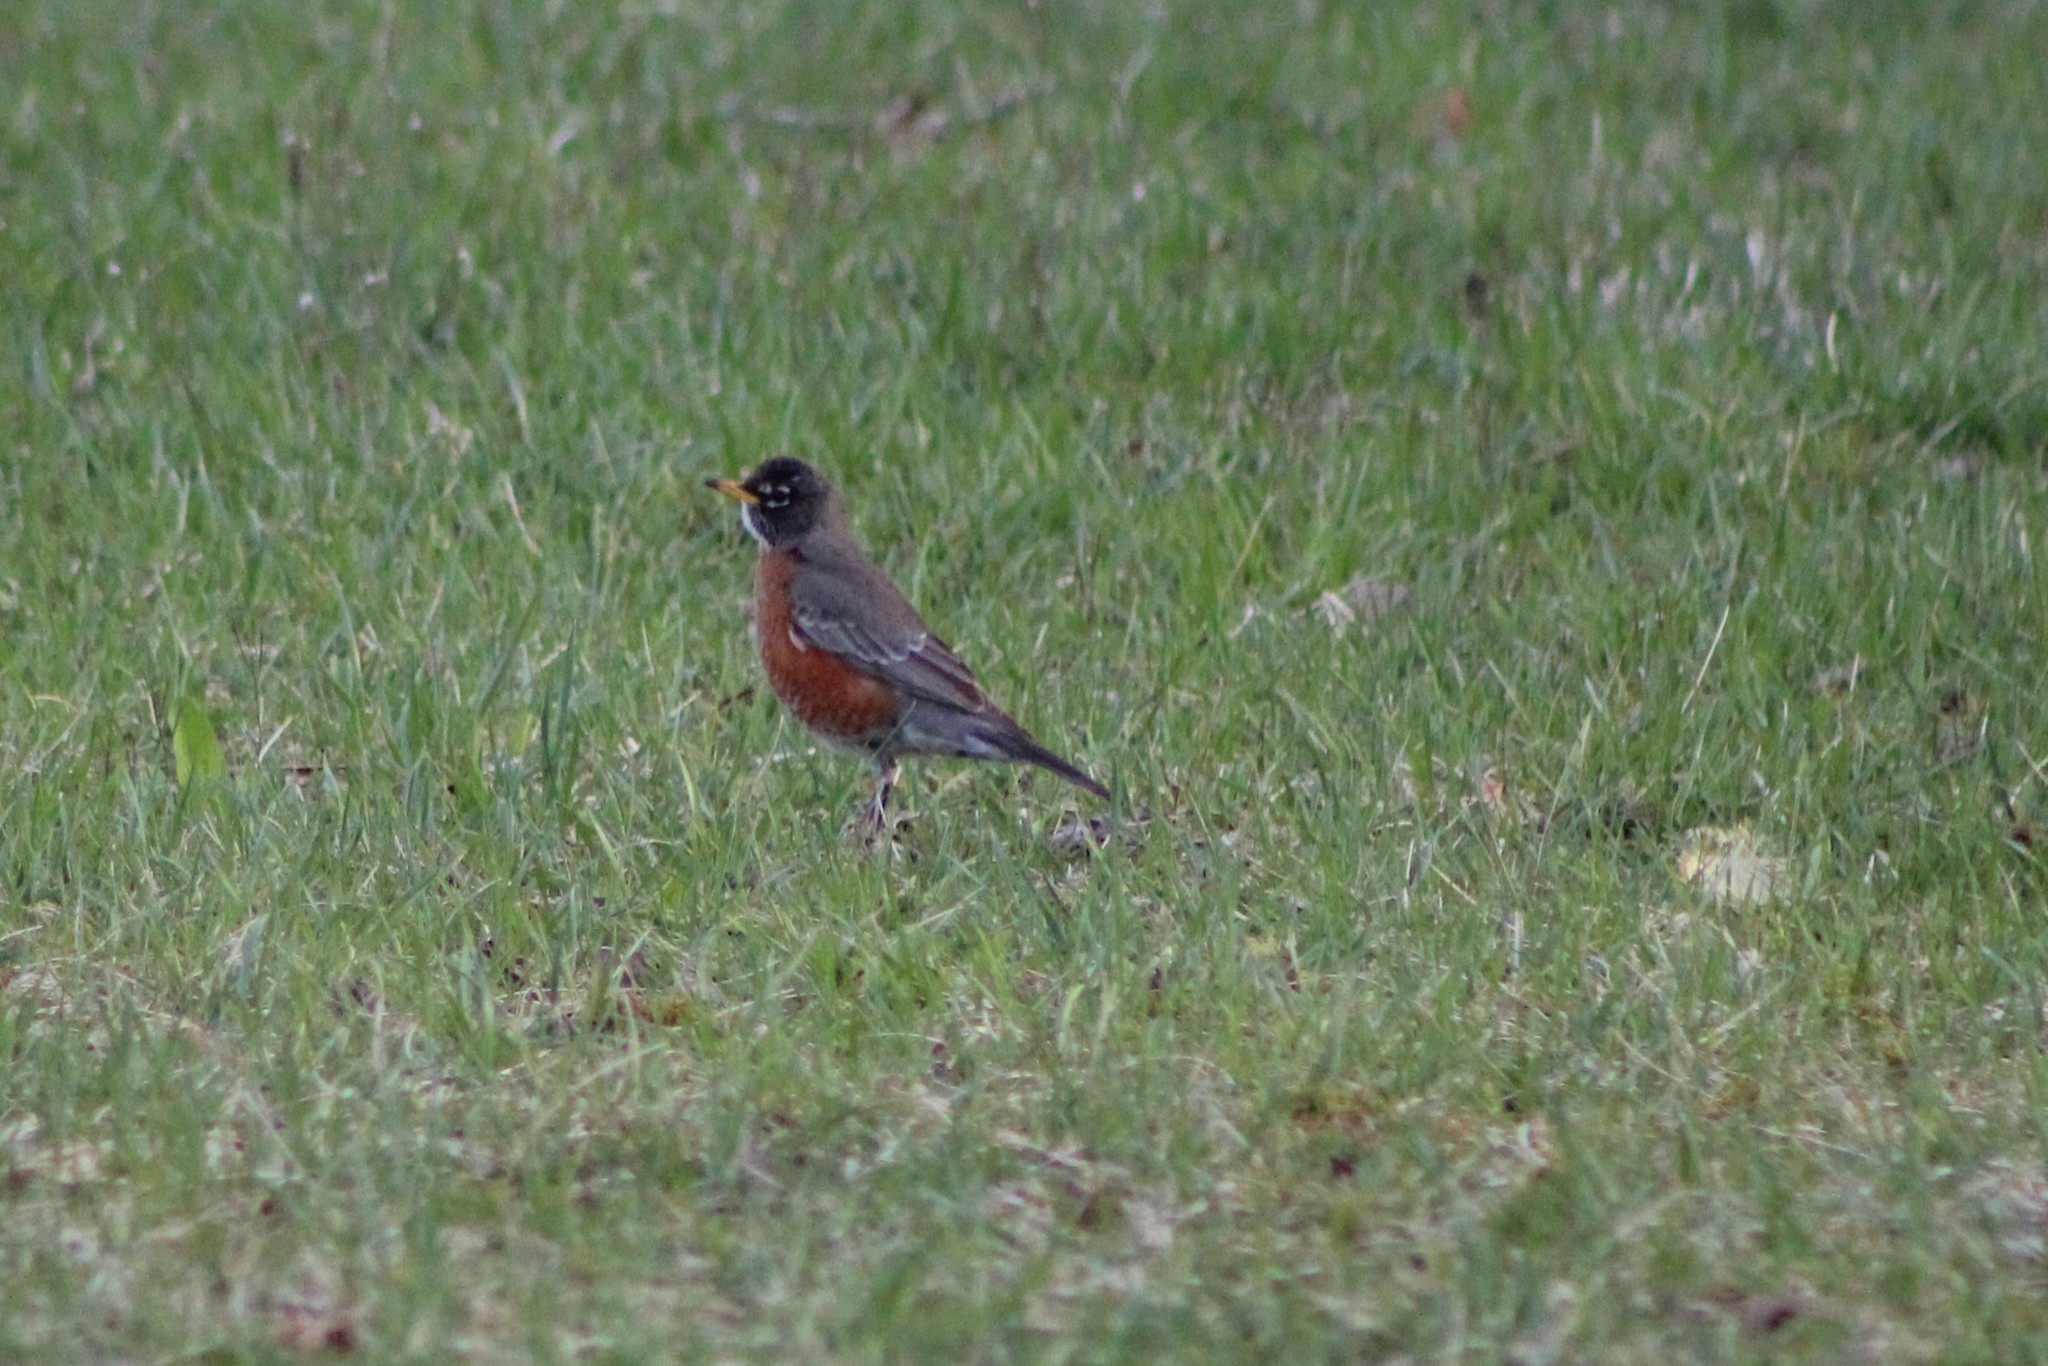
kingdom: Animalia
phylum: Chordata
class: Aves
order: Passeriformes
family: Turdidae
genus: Turdus
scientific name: Turdus migratorius
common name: American robin
